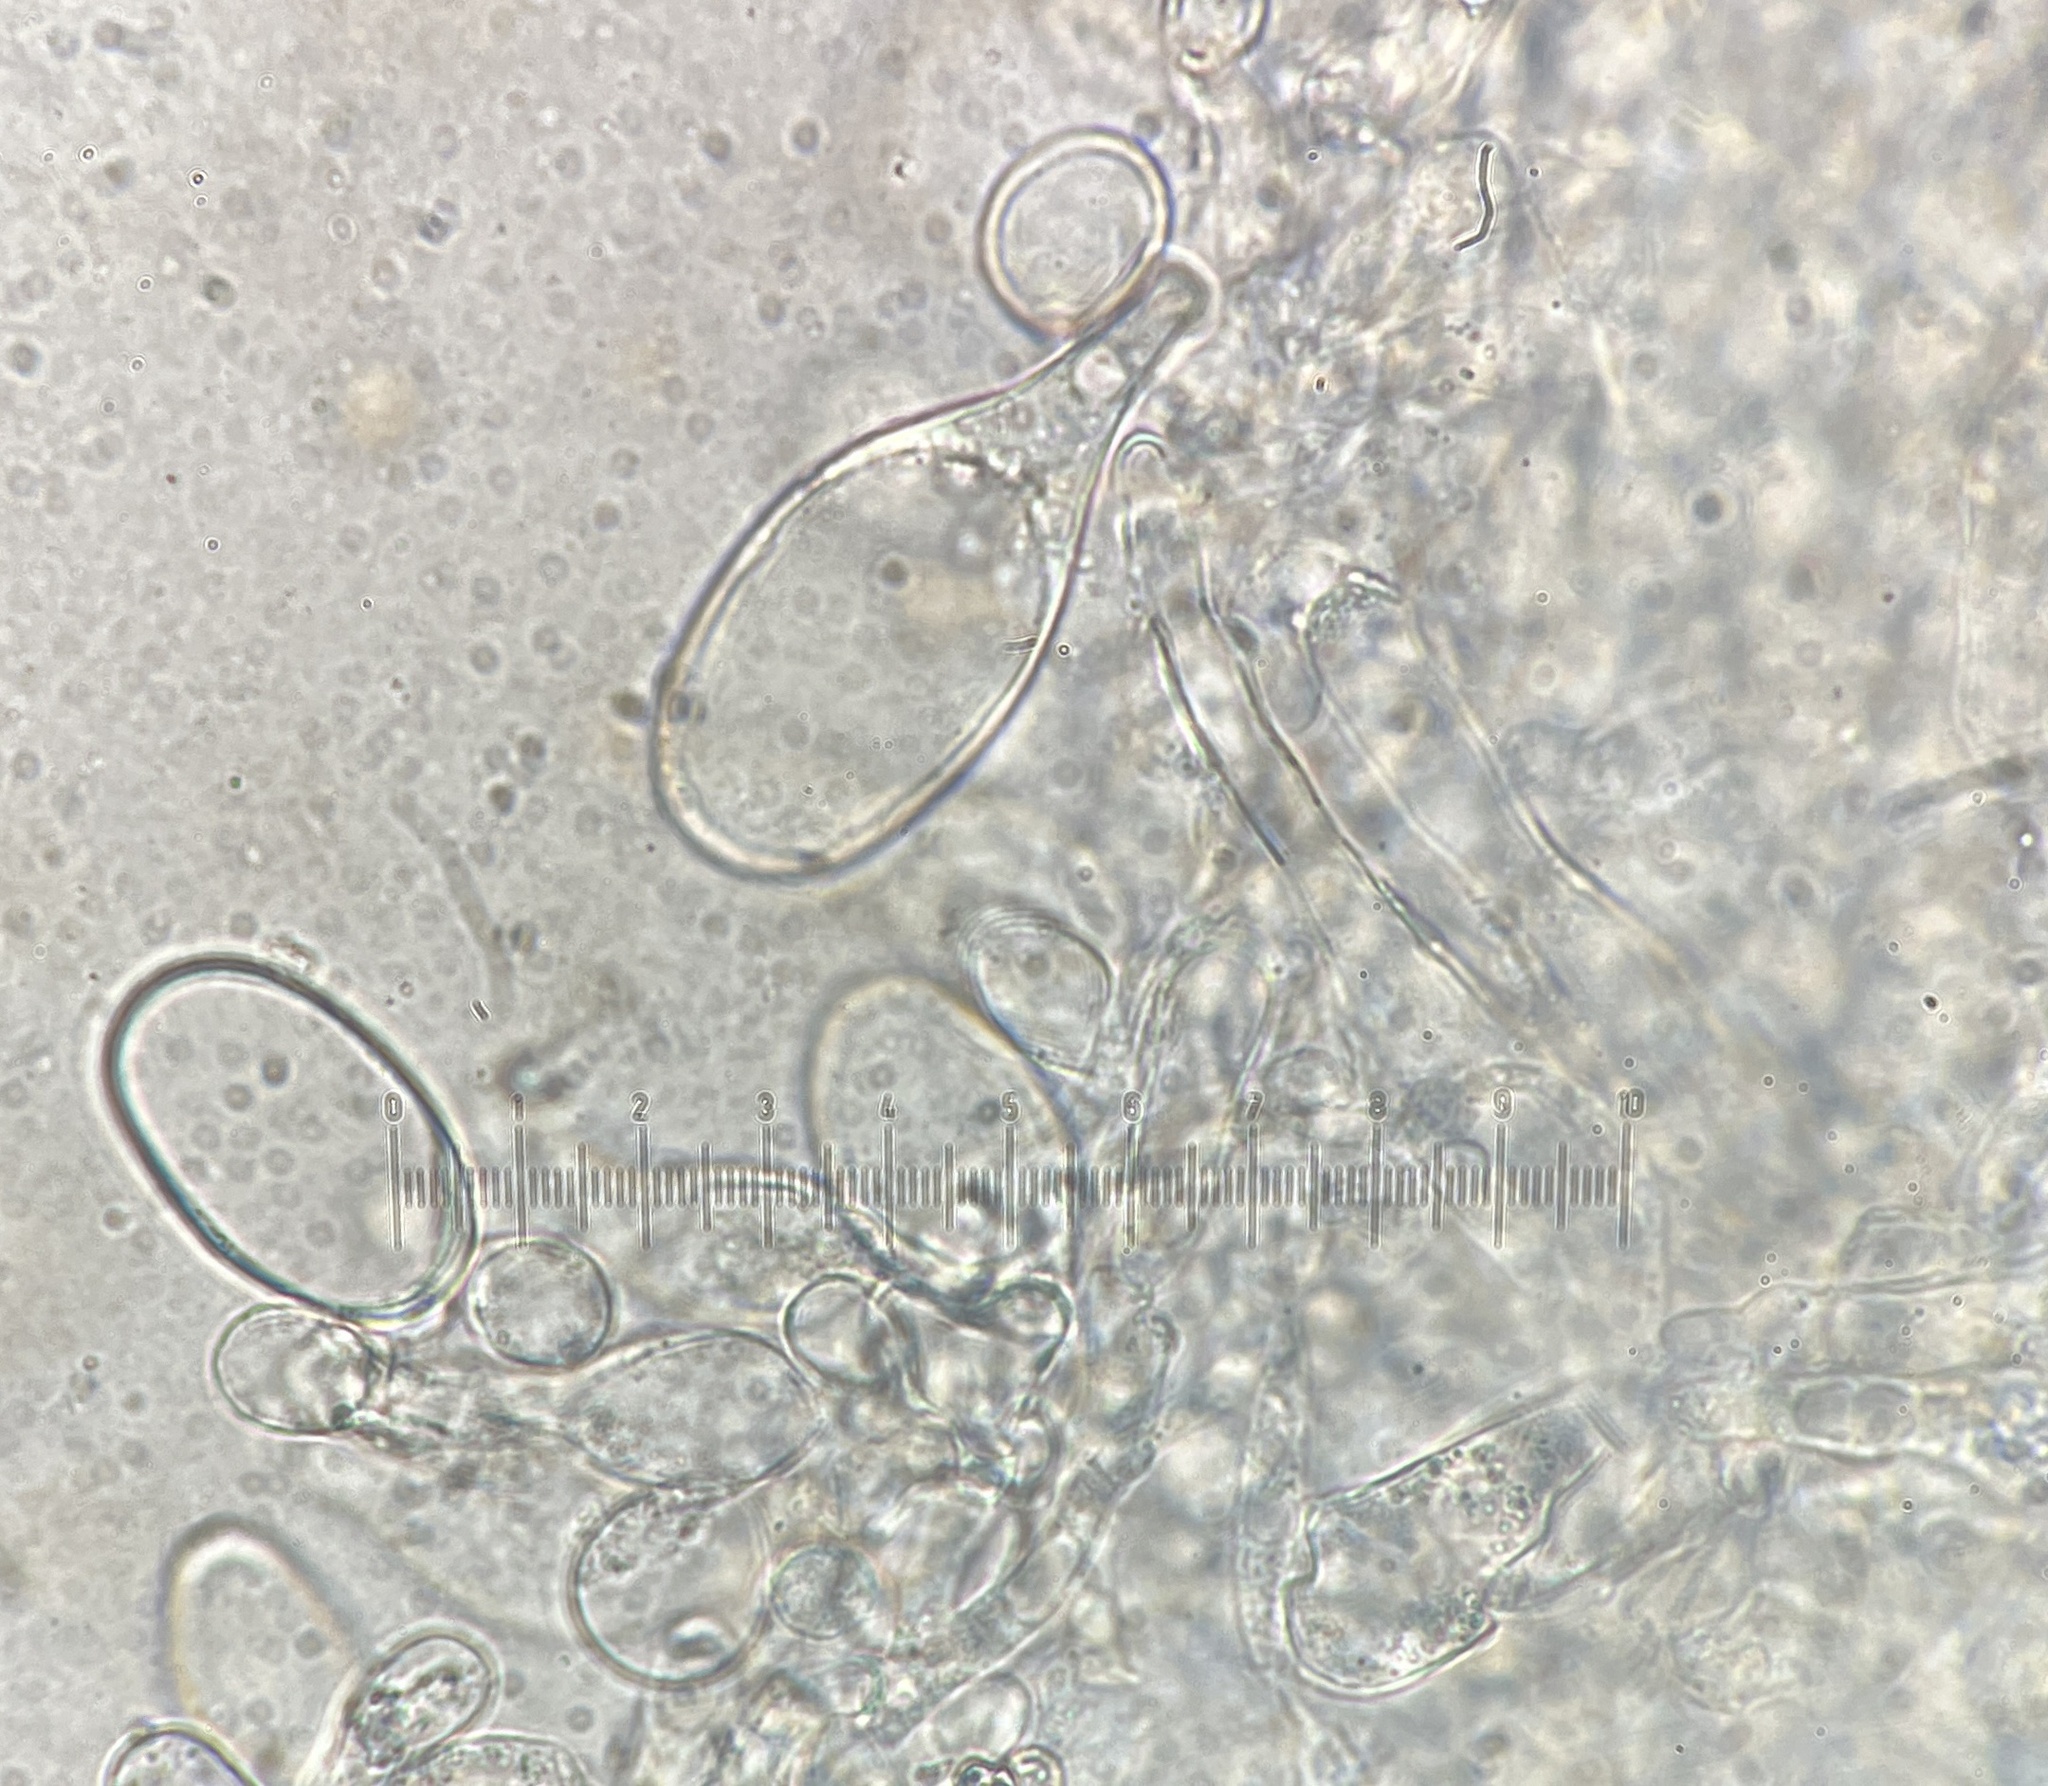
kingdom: Fungi
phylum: Basidiomycota
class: Agaricomycetes
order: Agaricales
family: Pluteaceae
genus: Pluteus
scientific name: Pluteus velutinus
